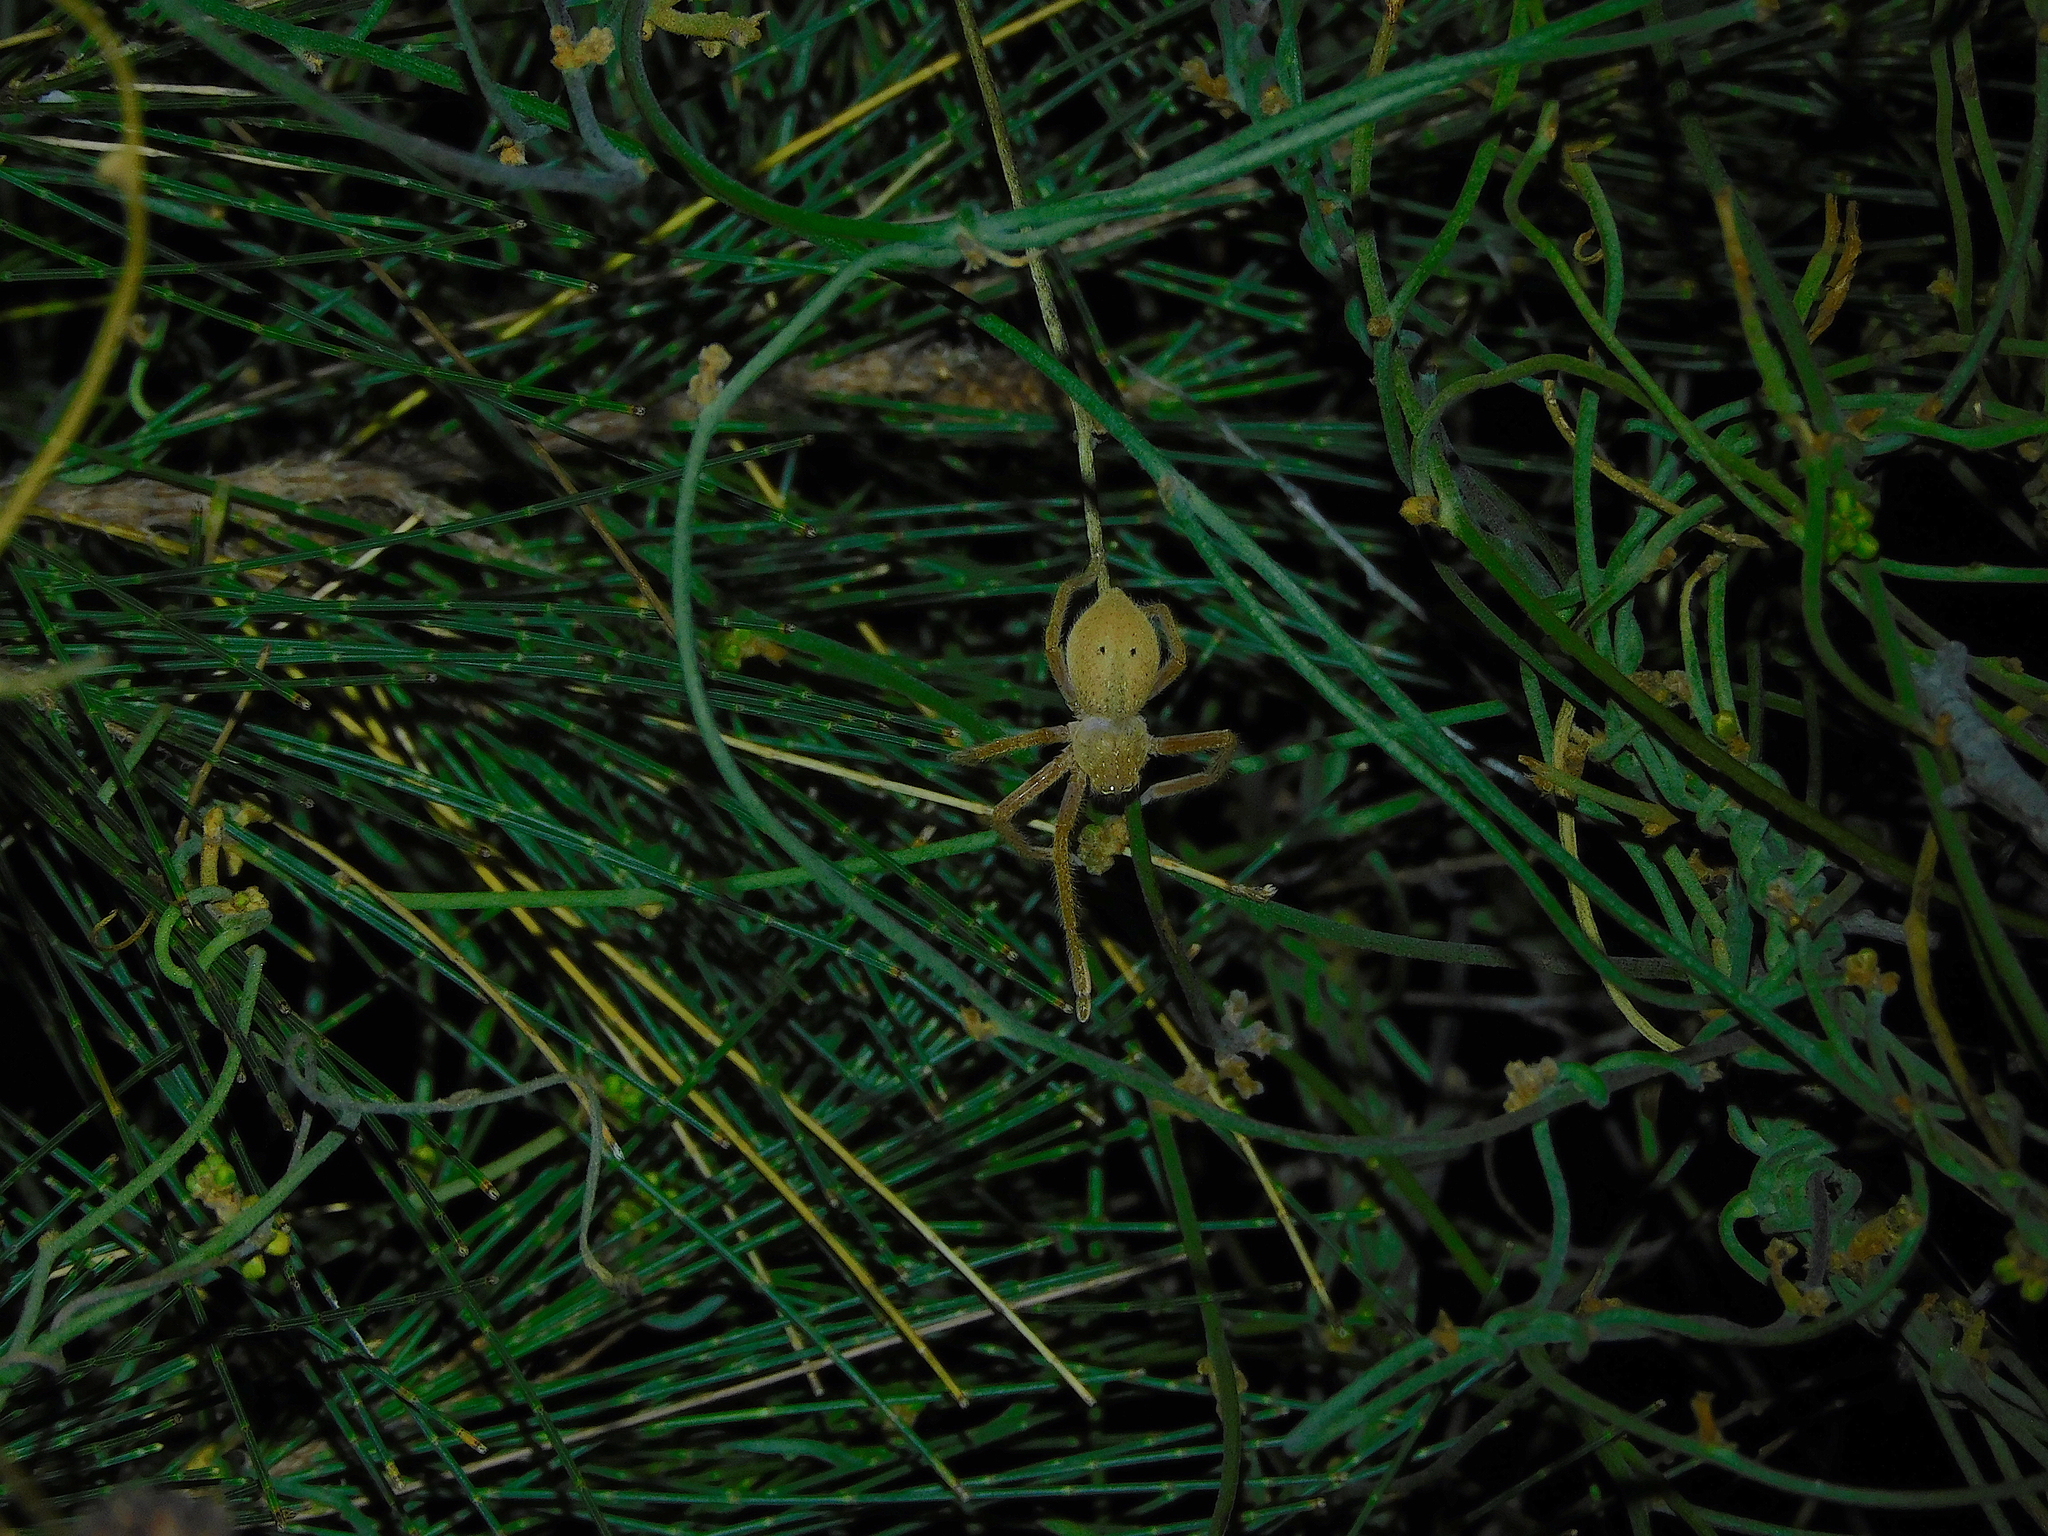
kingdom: Animalia
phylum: Arthropoda
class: Arachnida
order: Araneae
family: Sparassidae
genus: Neosparassus
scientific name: Neosparassus diana
